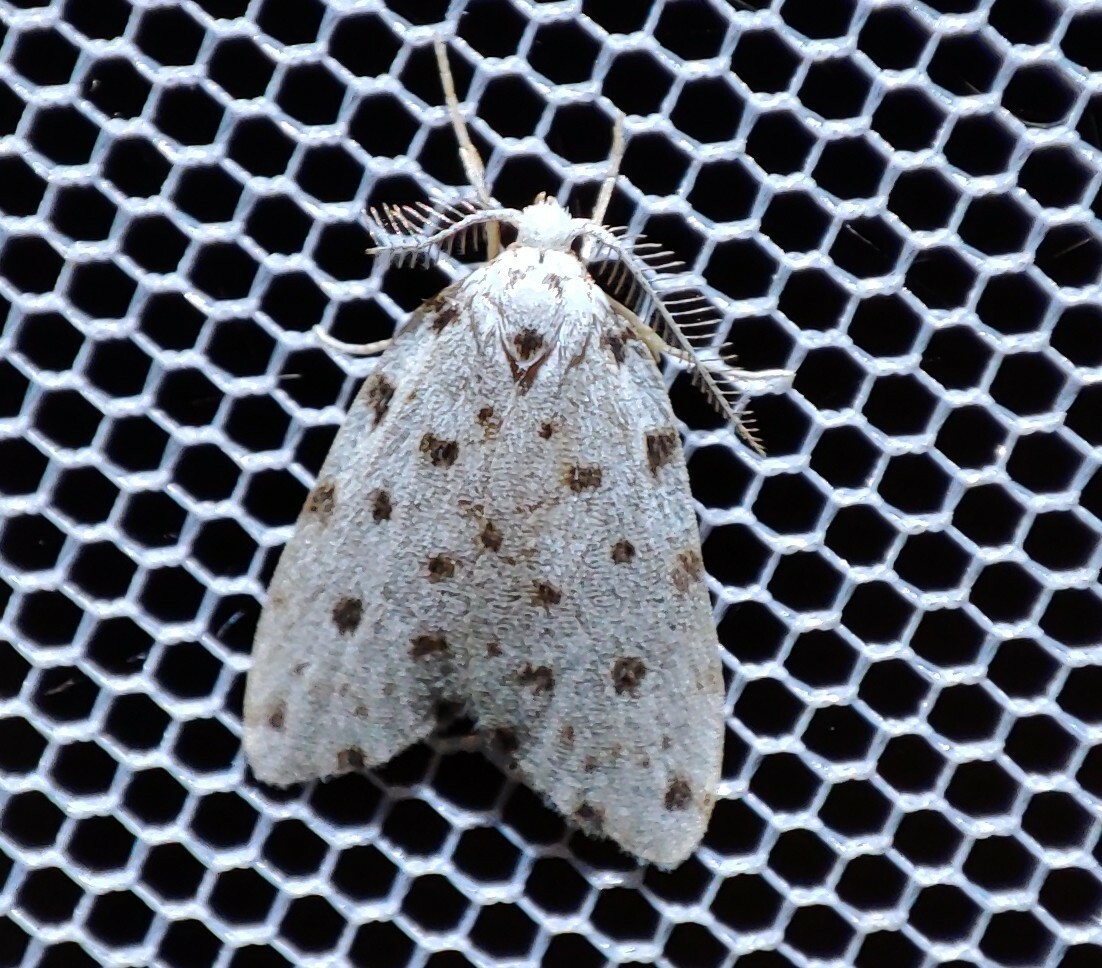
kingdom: Animalia
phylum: Arthropoda
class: Insecta
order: Lepidoptera
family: Erebidae
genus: Siccia
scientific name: Siccia caffra
